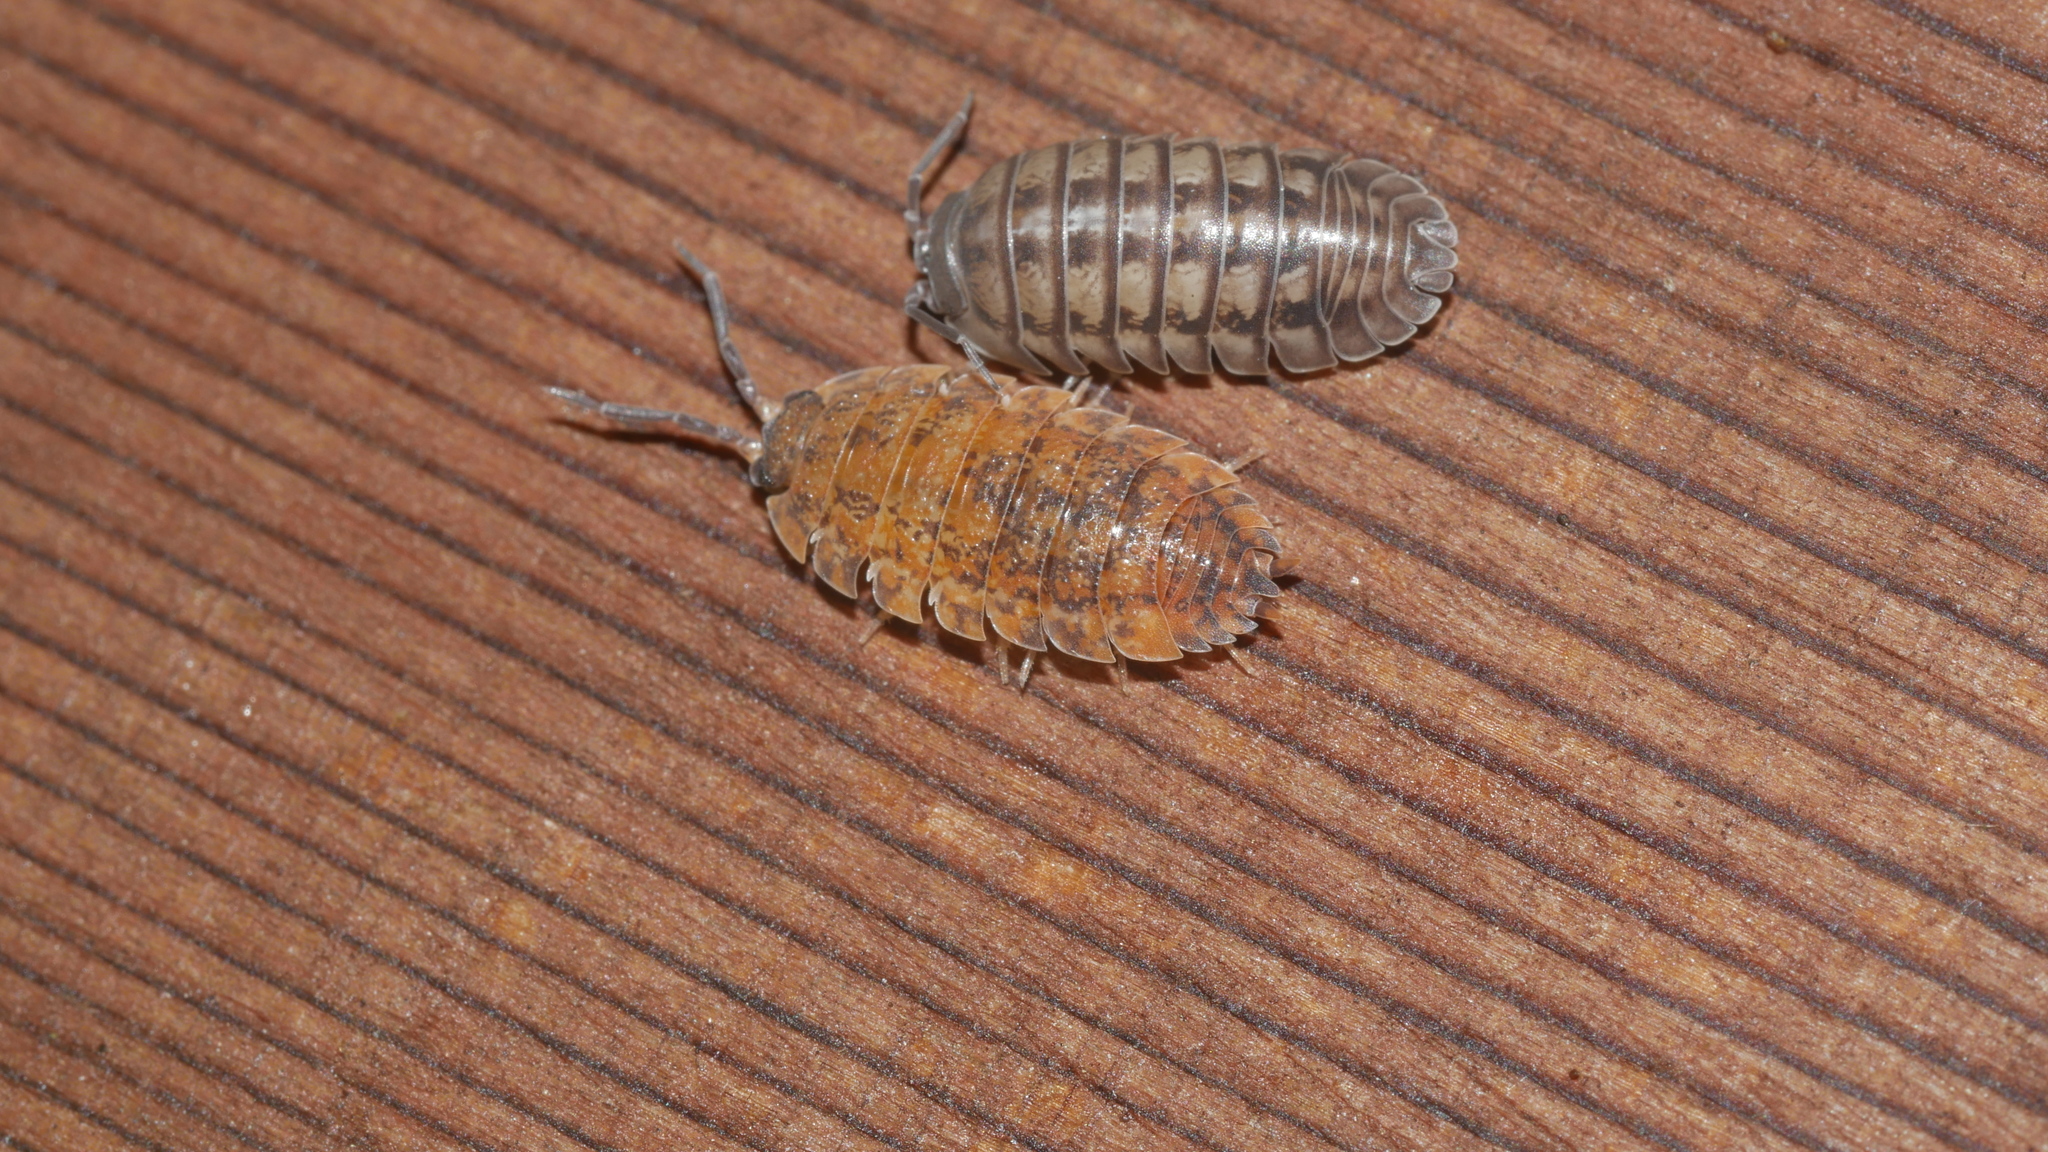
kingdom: Animalia
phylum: Arthropoda
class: Malacostraca
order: Isopoda
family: Porcellionidae
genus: Porcellio
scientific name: Porcellio scaber
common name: Common rough woodlouse
